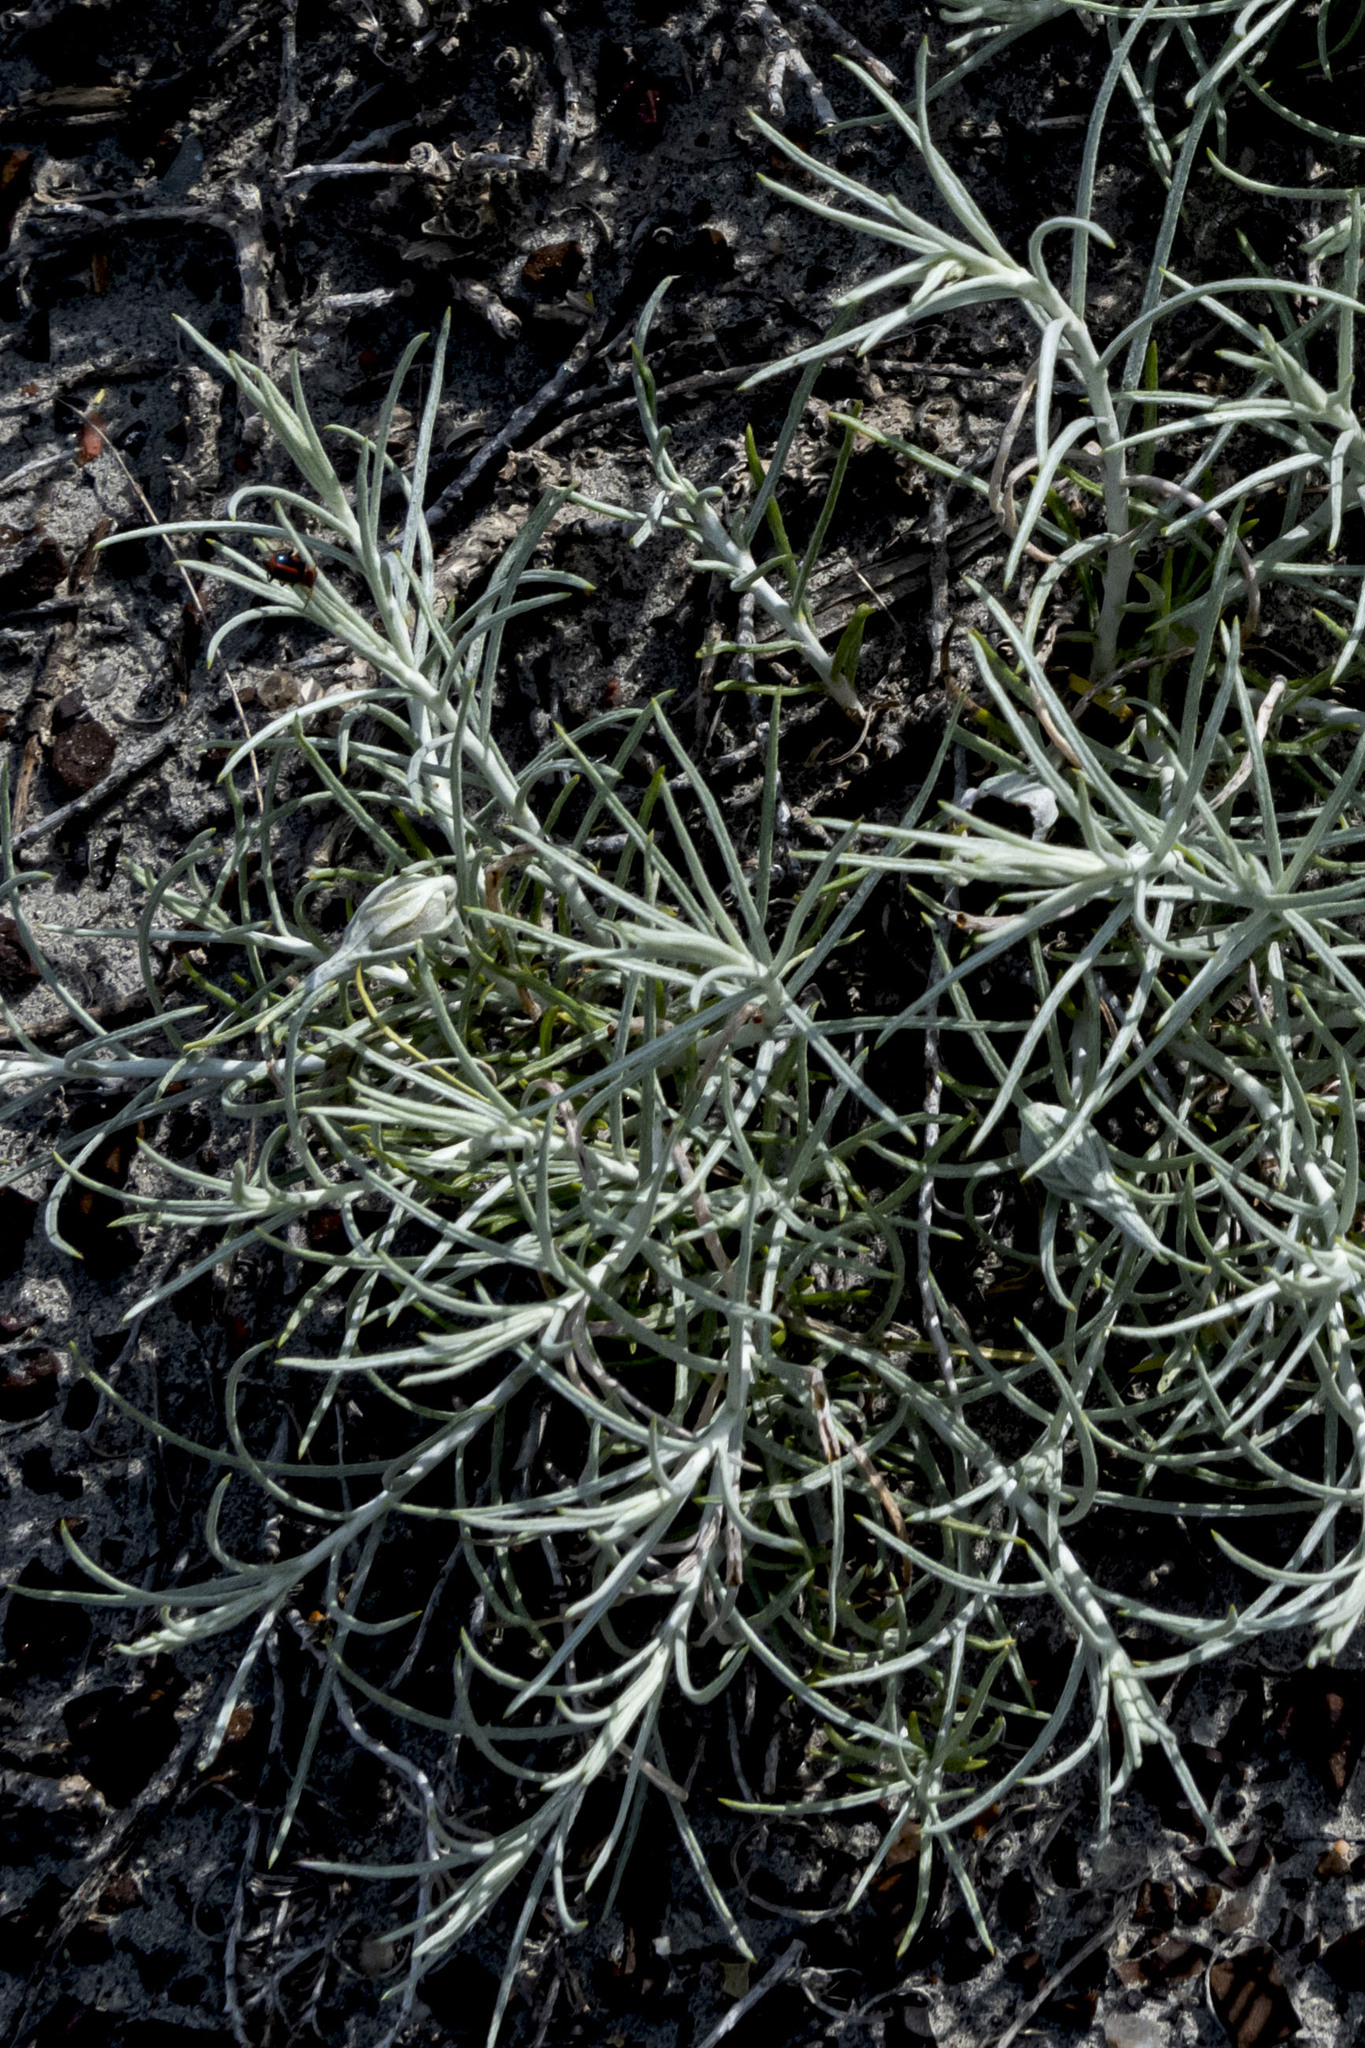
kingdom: Plantae
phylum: Tracheophyta
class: Magnoliopsida
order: Asterales
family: Asteraceae
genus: Artemisia
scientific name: Artemisia longifolia
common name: Long-leaved mugwort
